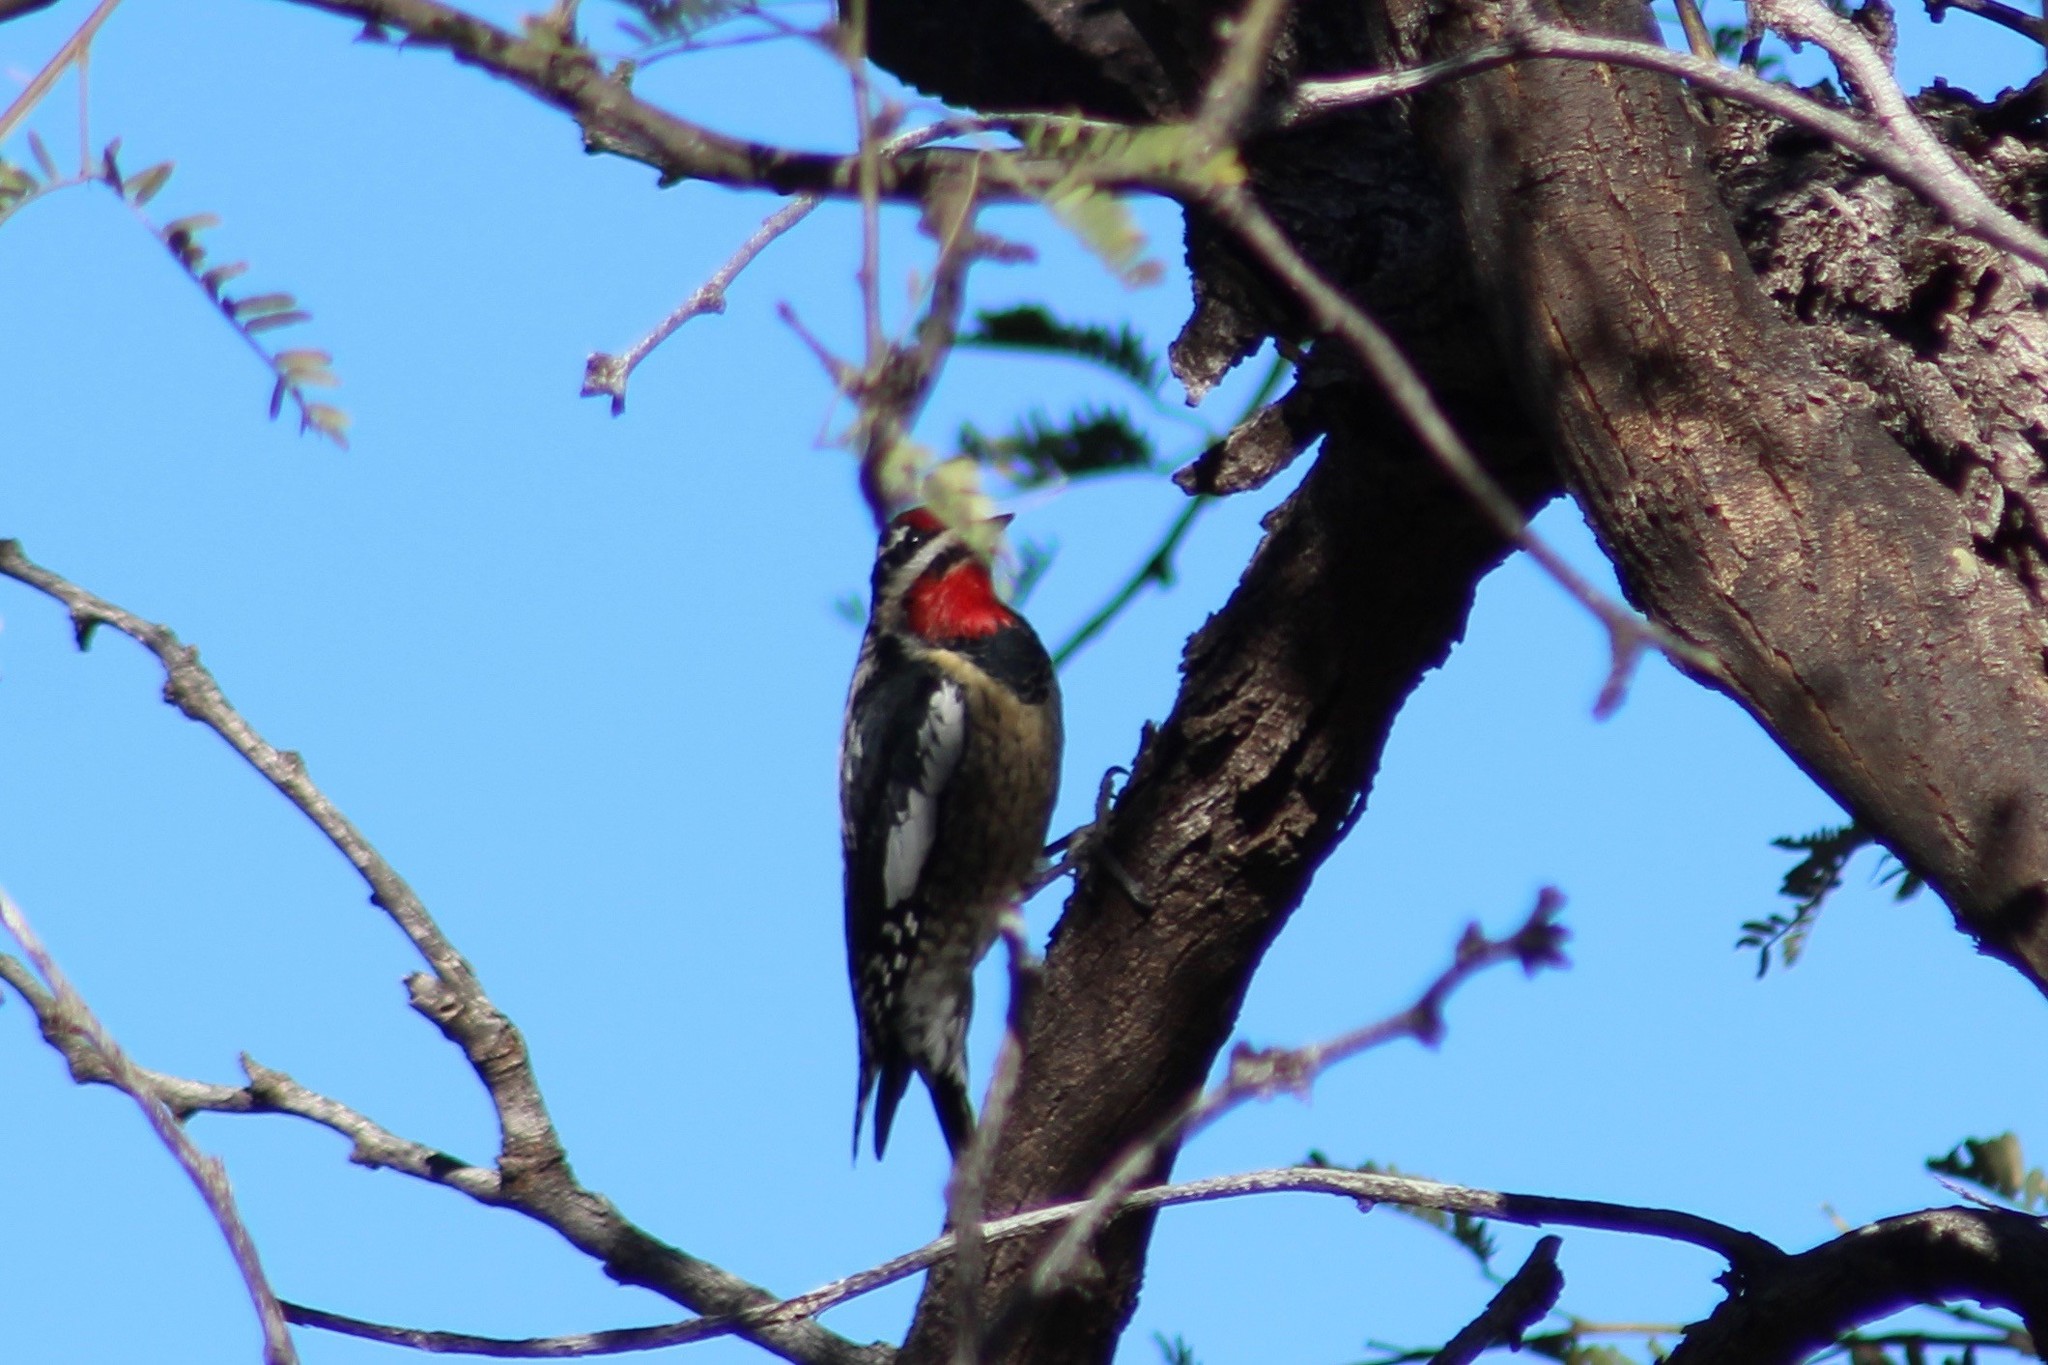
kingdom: Animalia
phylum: Chordata
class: Aves
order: Piciformes
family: Picidae
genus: Sphyrapicus
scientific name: Sphyrapicus nuchalis
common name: Red-naped sapsucker
